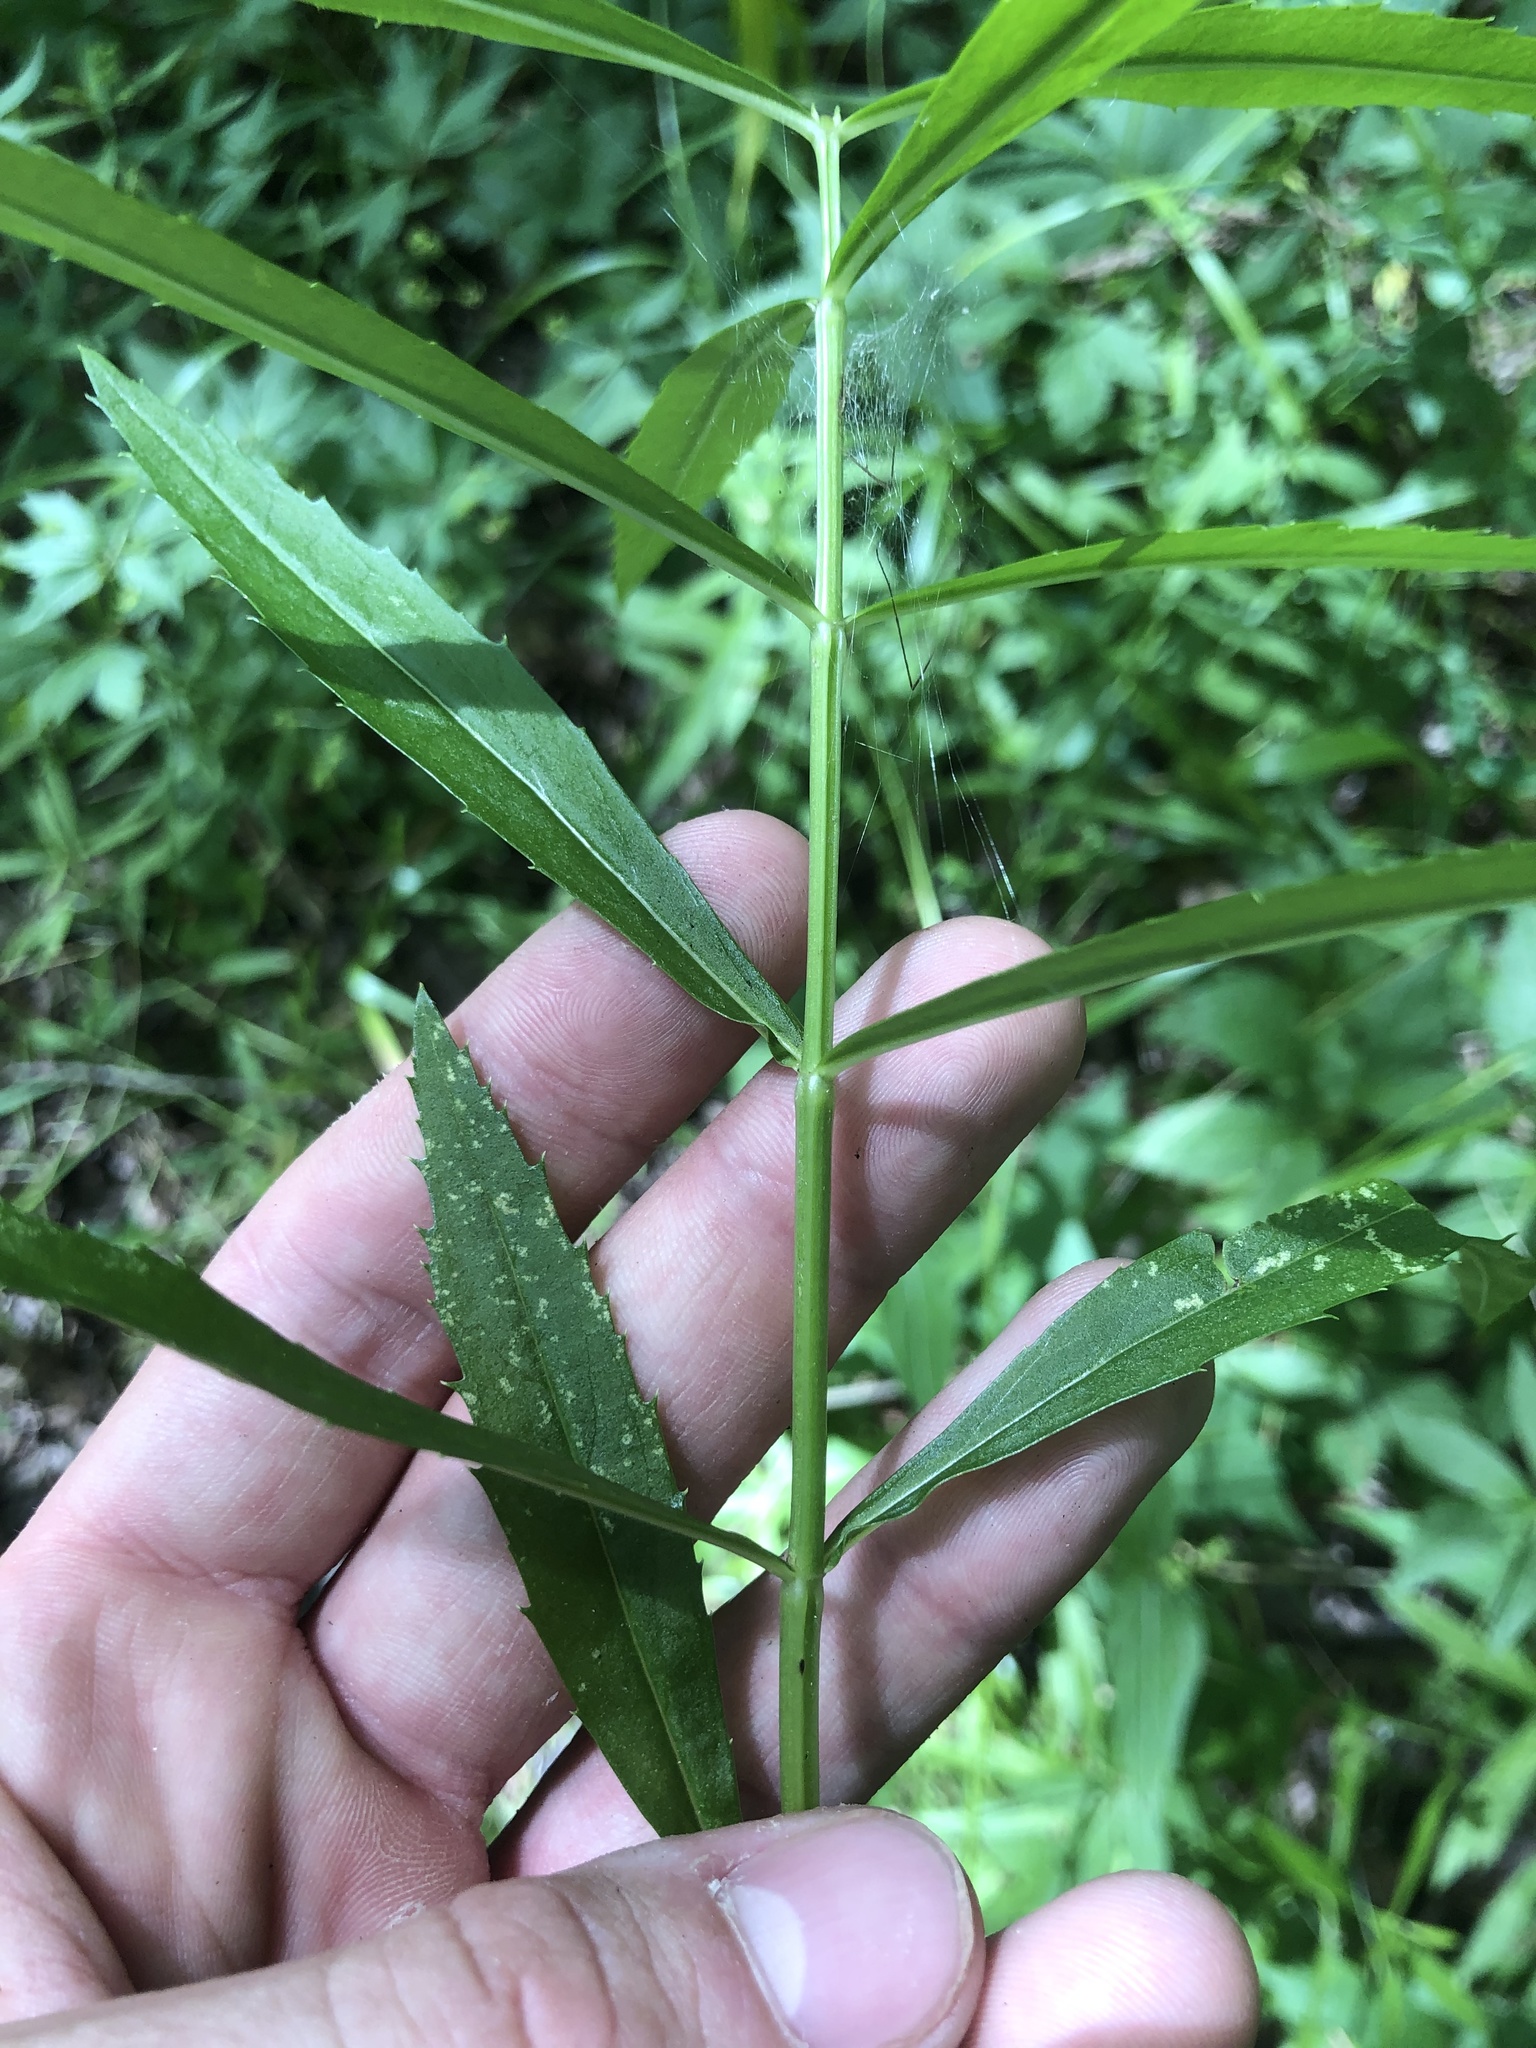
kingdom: Plantae
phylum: Tracheophyta
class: Magnoliopsida
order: Lamiales
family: Lamiaceae
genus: Physostegia
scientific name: Physostegia virginiana
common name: Obedient-plant
